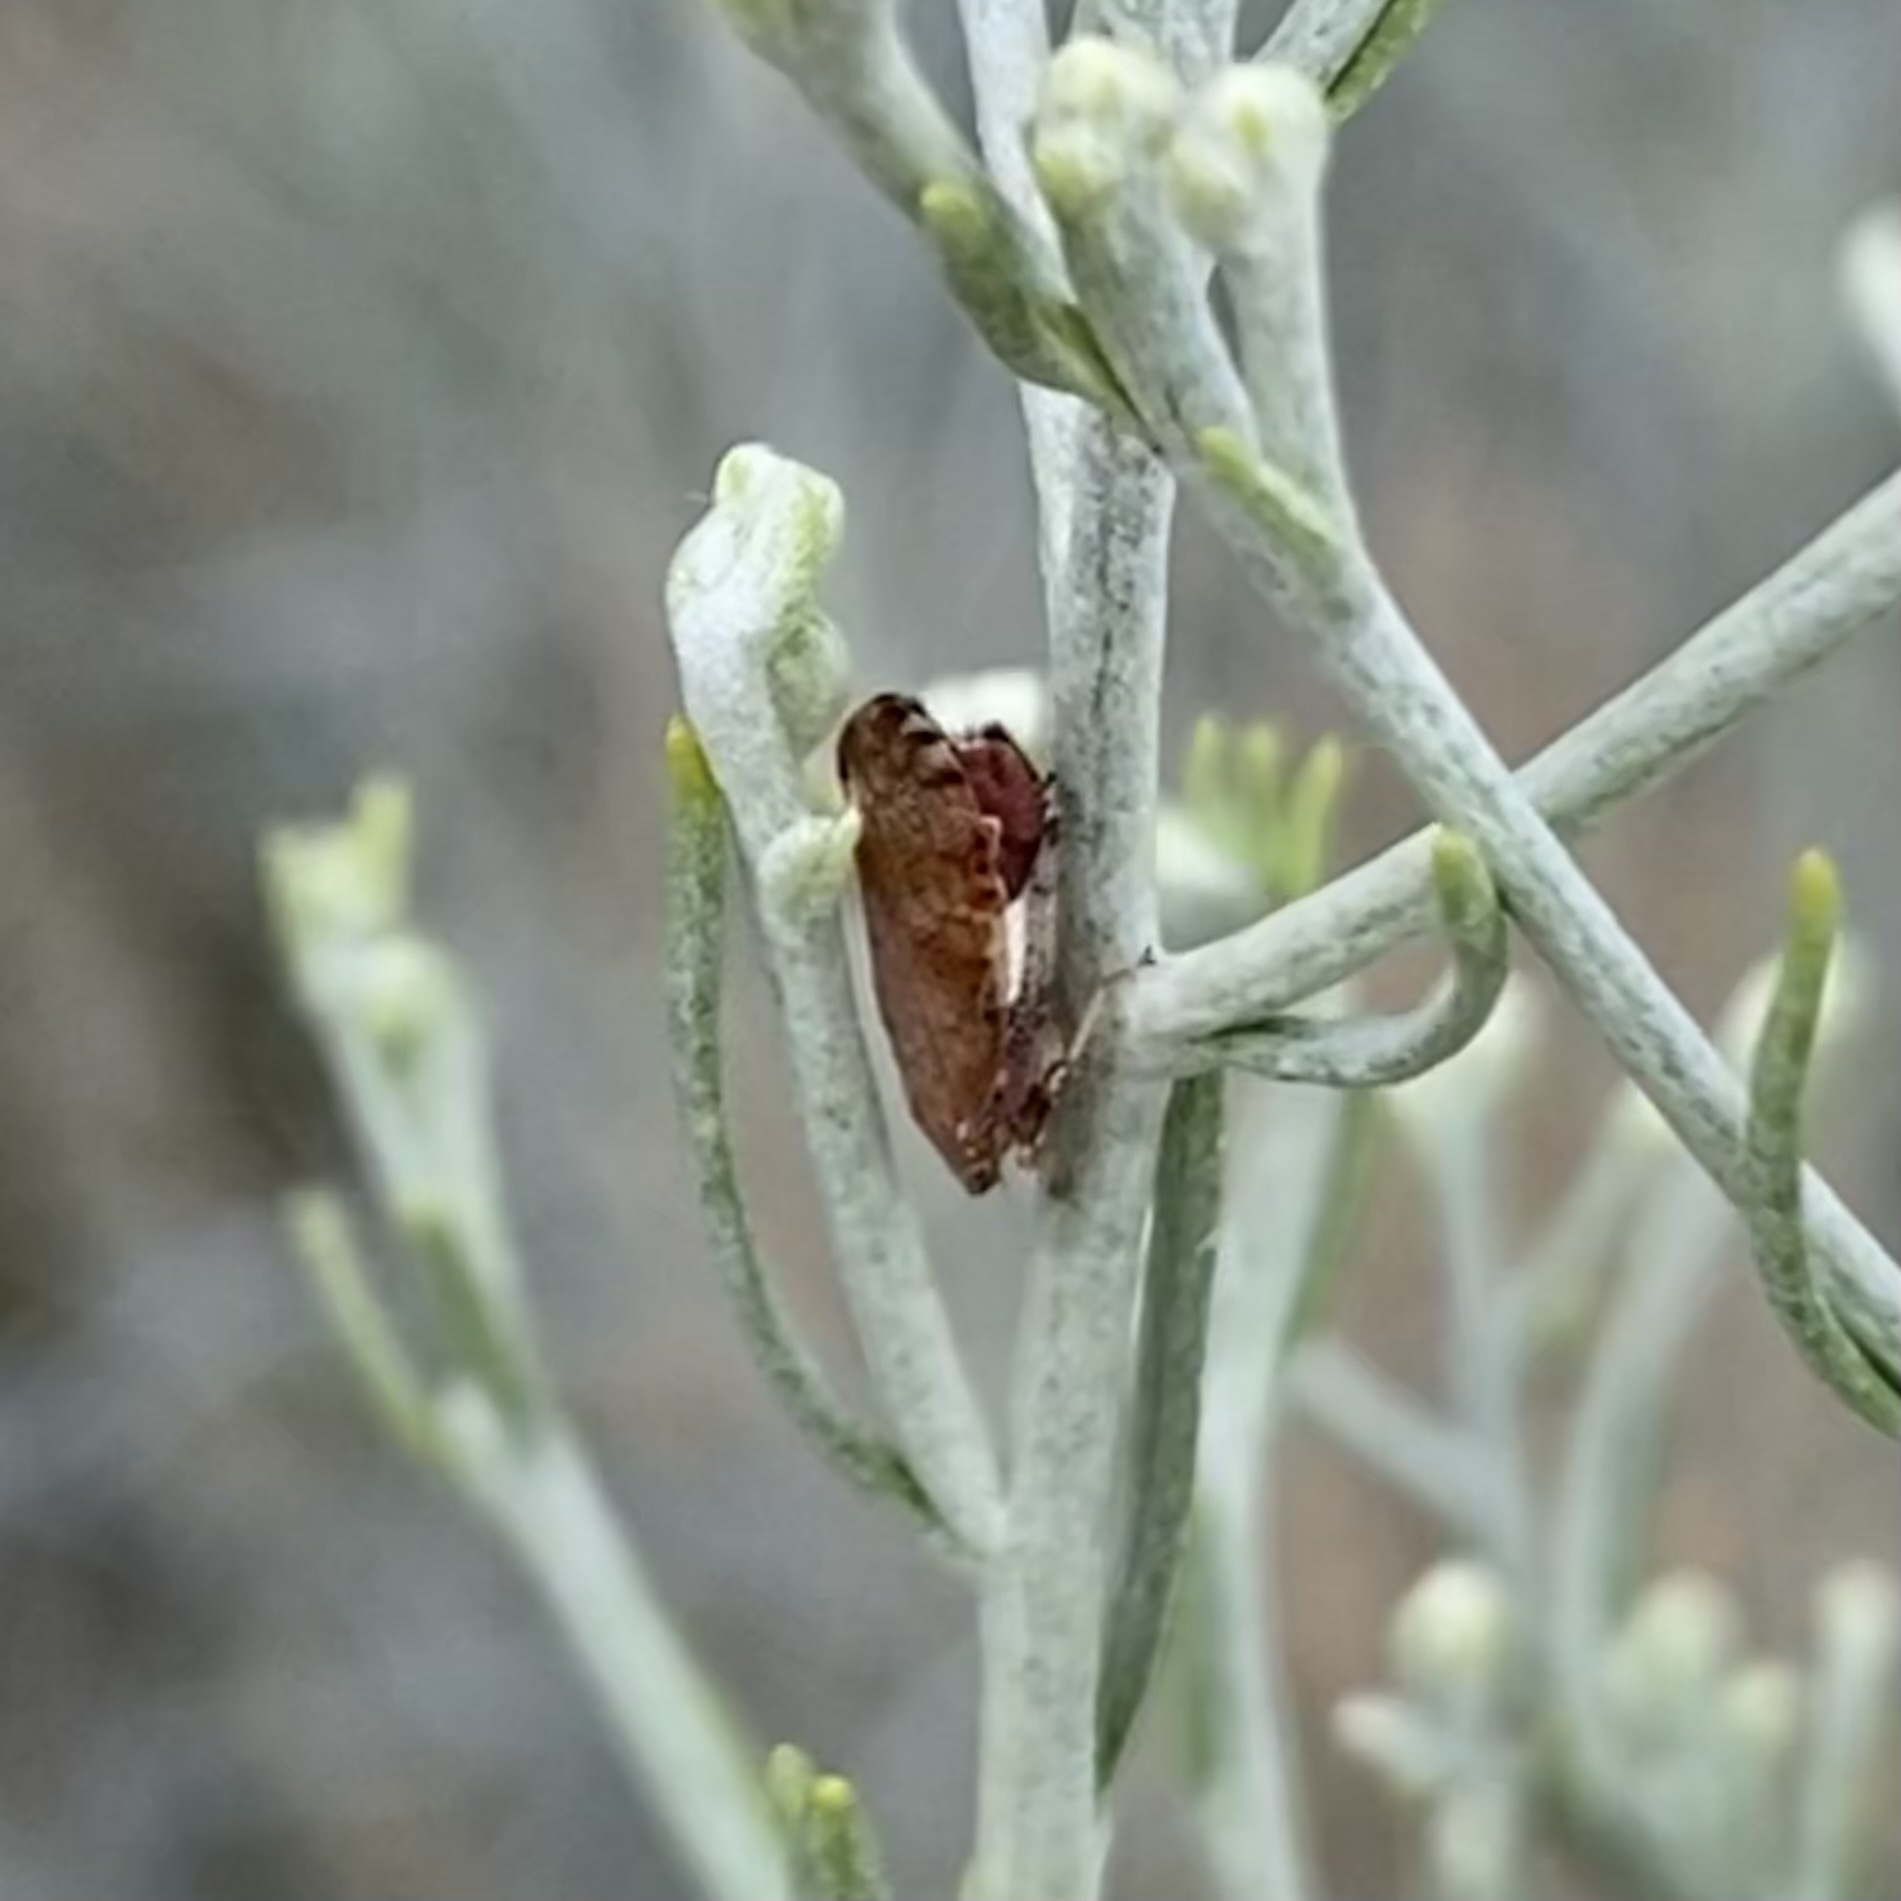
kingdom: Animalia
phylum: Arthropoda
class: Insecta
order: Hemiptera
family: Cicadellidae
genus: Fieberiella
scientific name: Fieberiella florii
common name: Flor’s leafhopper
